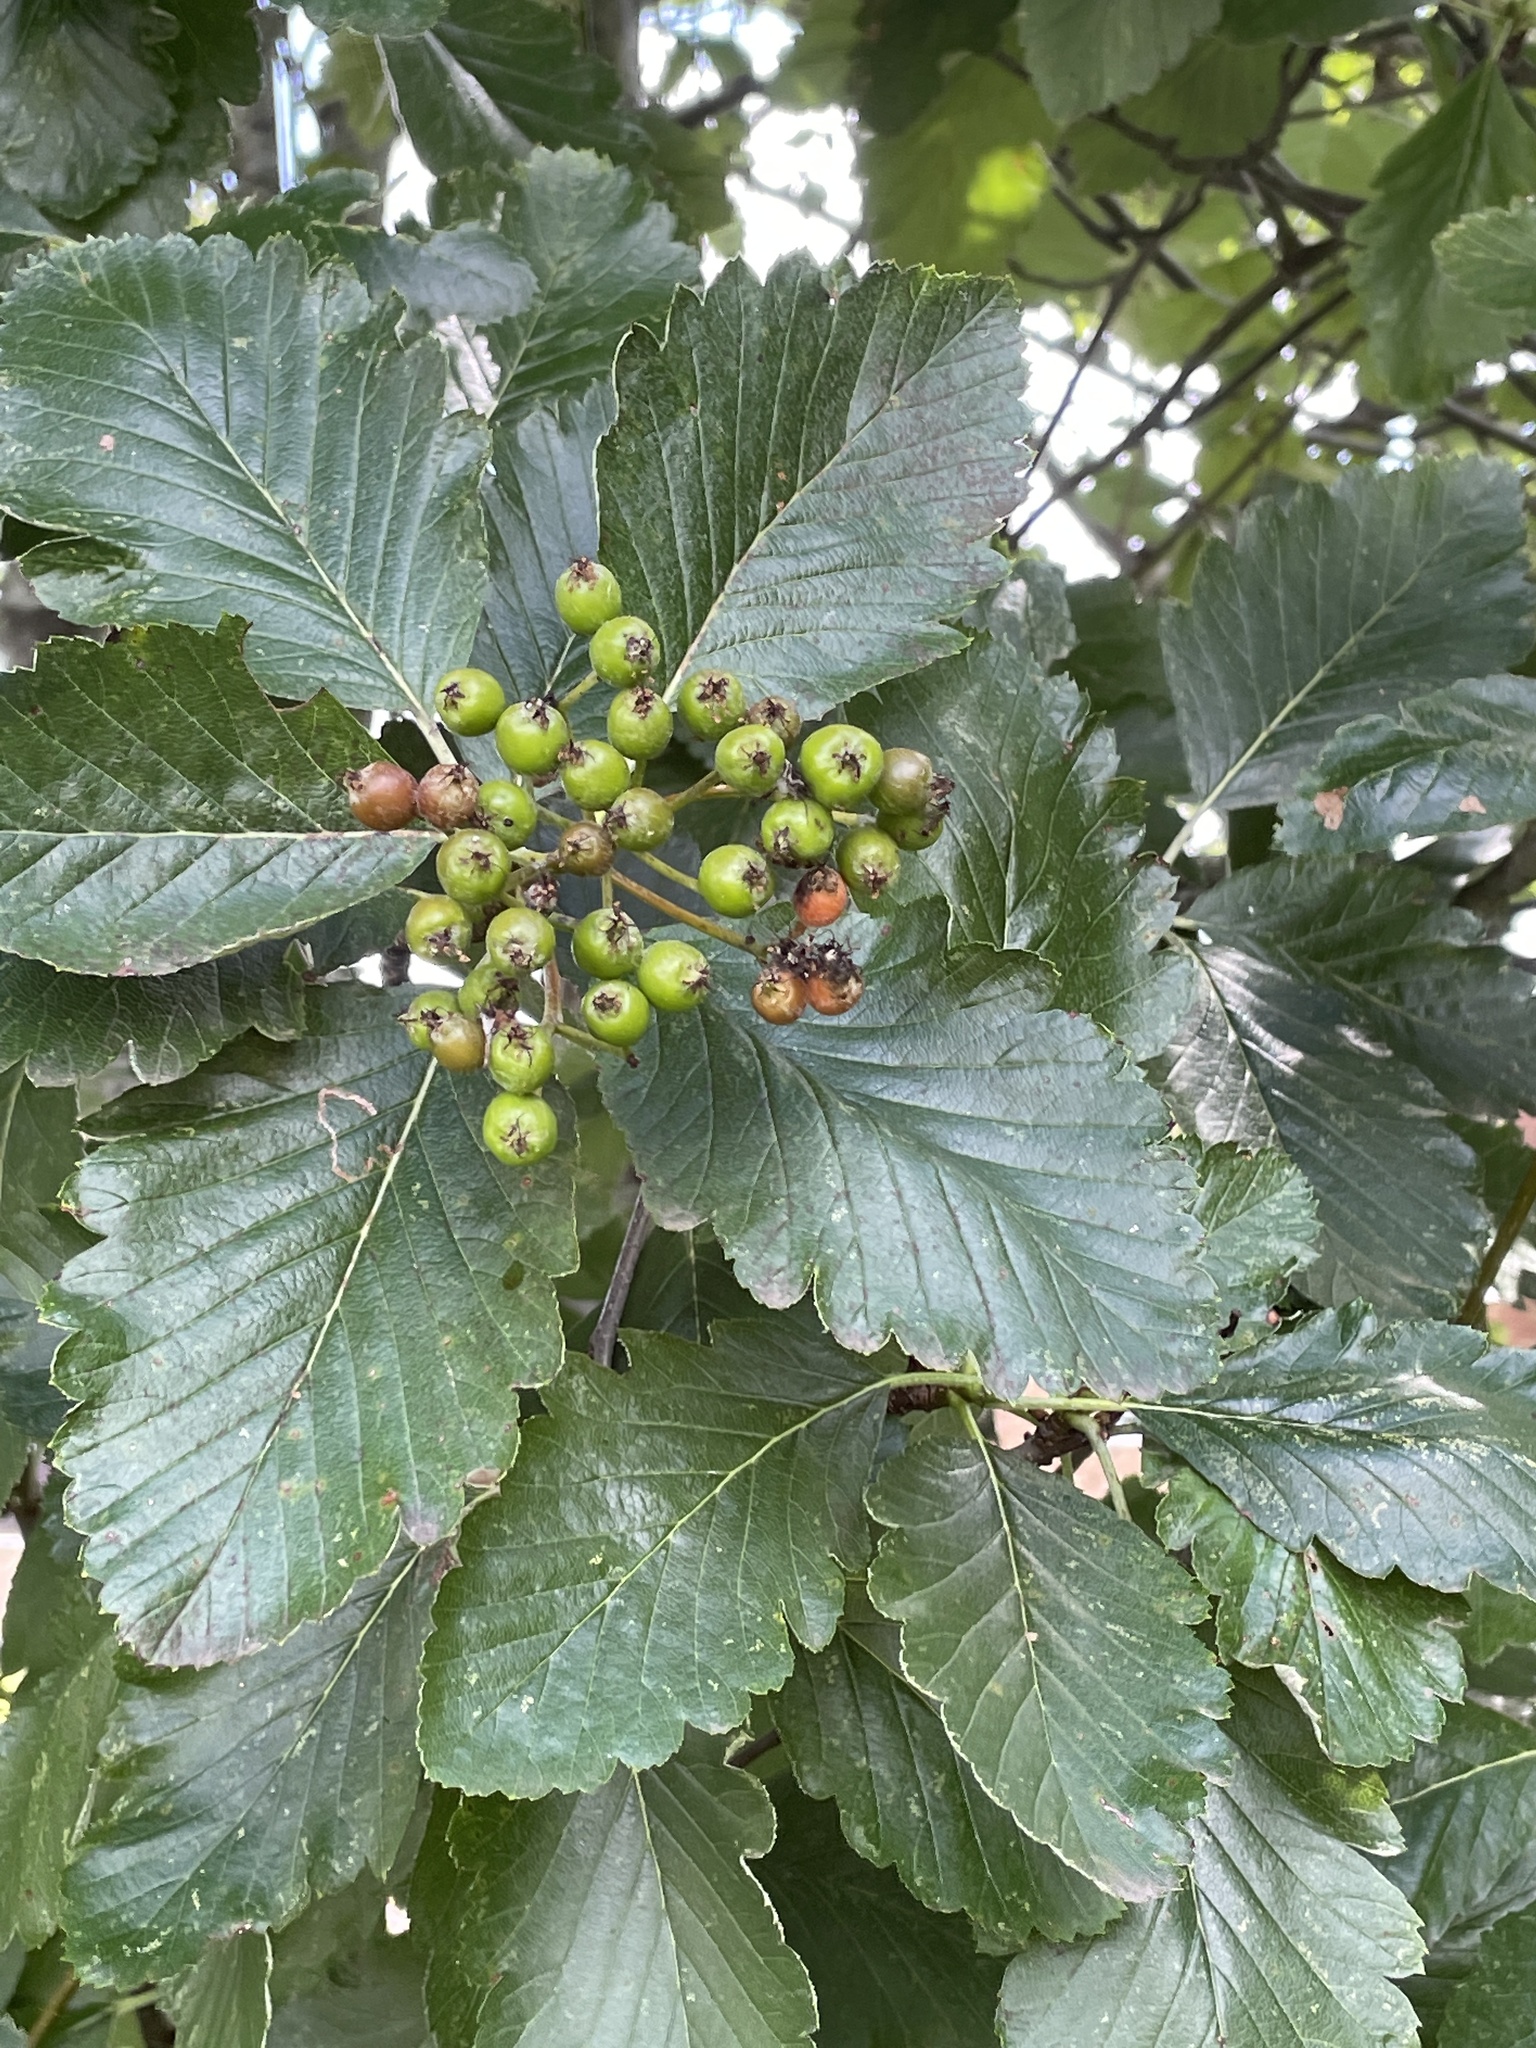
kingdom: Plantae
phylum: Tracheophyta
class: Magnoliopsida
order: Rosales
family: Rosaceae
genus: Hedlundia
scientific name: Hedlundia mougeotii
